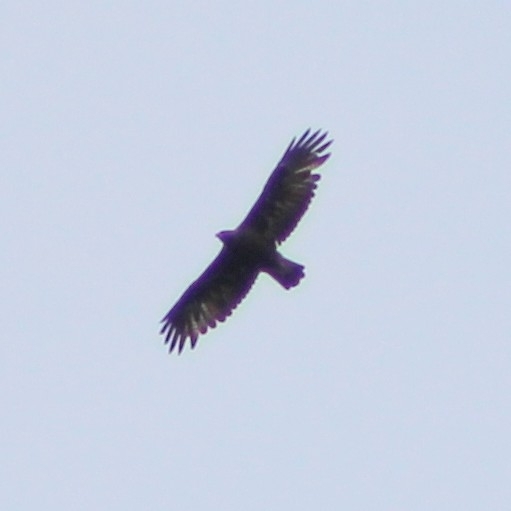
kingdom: Animalia
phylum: Chordata
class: Aves
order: Accipitriformes
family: Accipitridae
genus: Aquila
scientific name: Aquila chrysaetos
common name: Golden eagle
